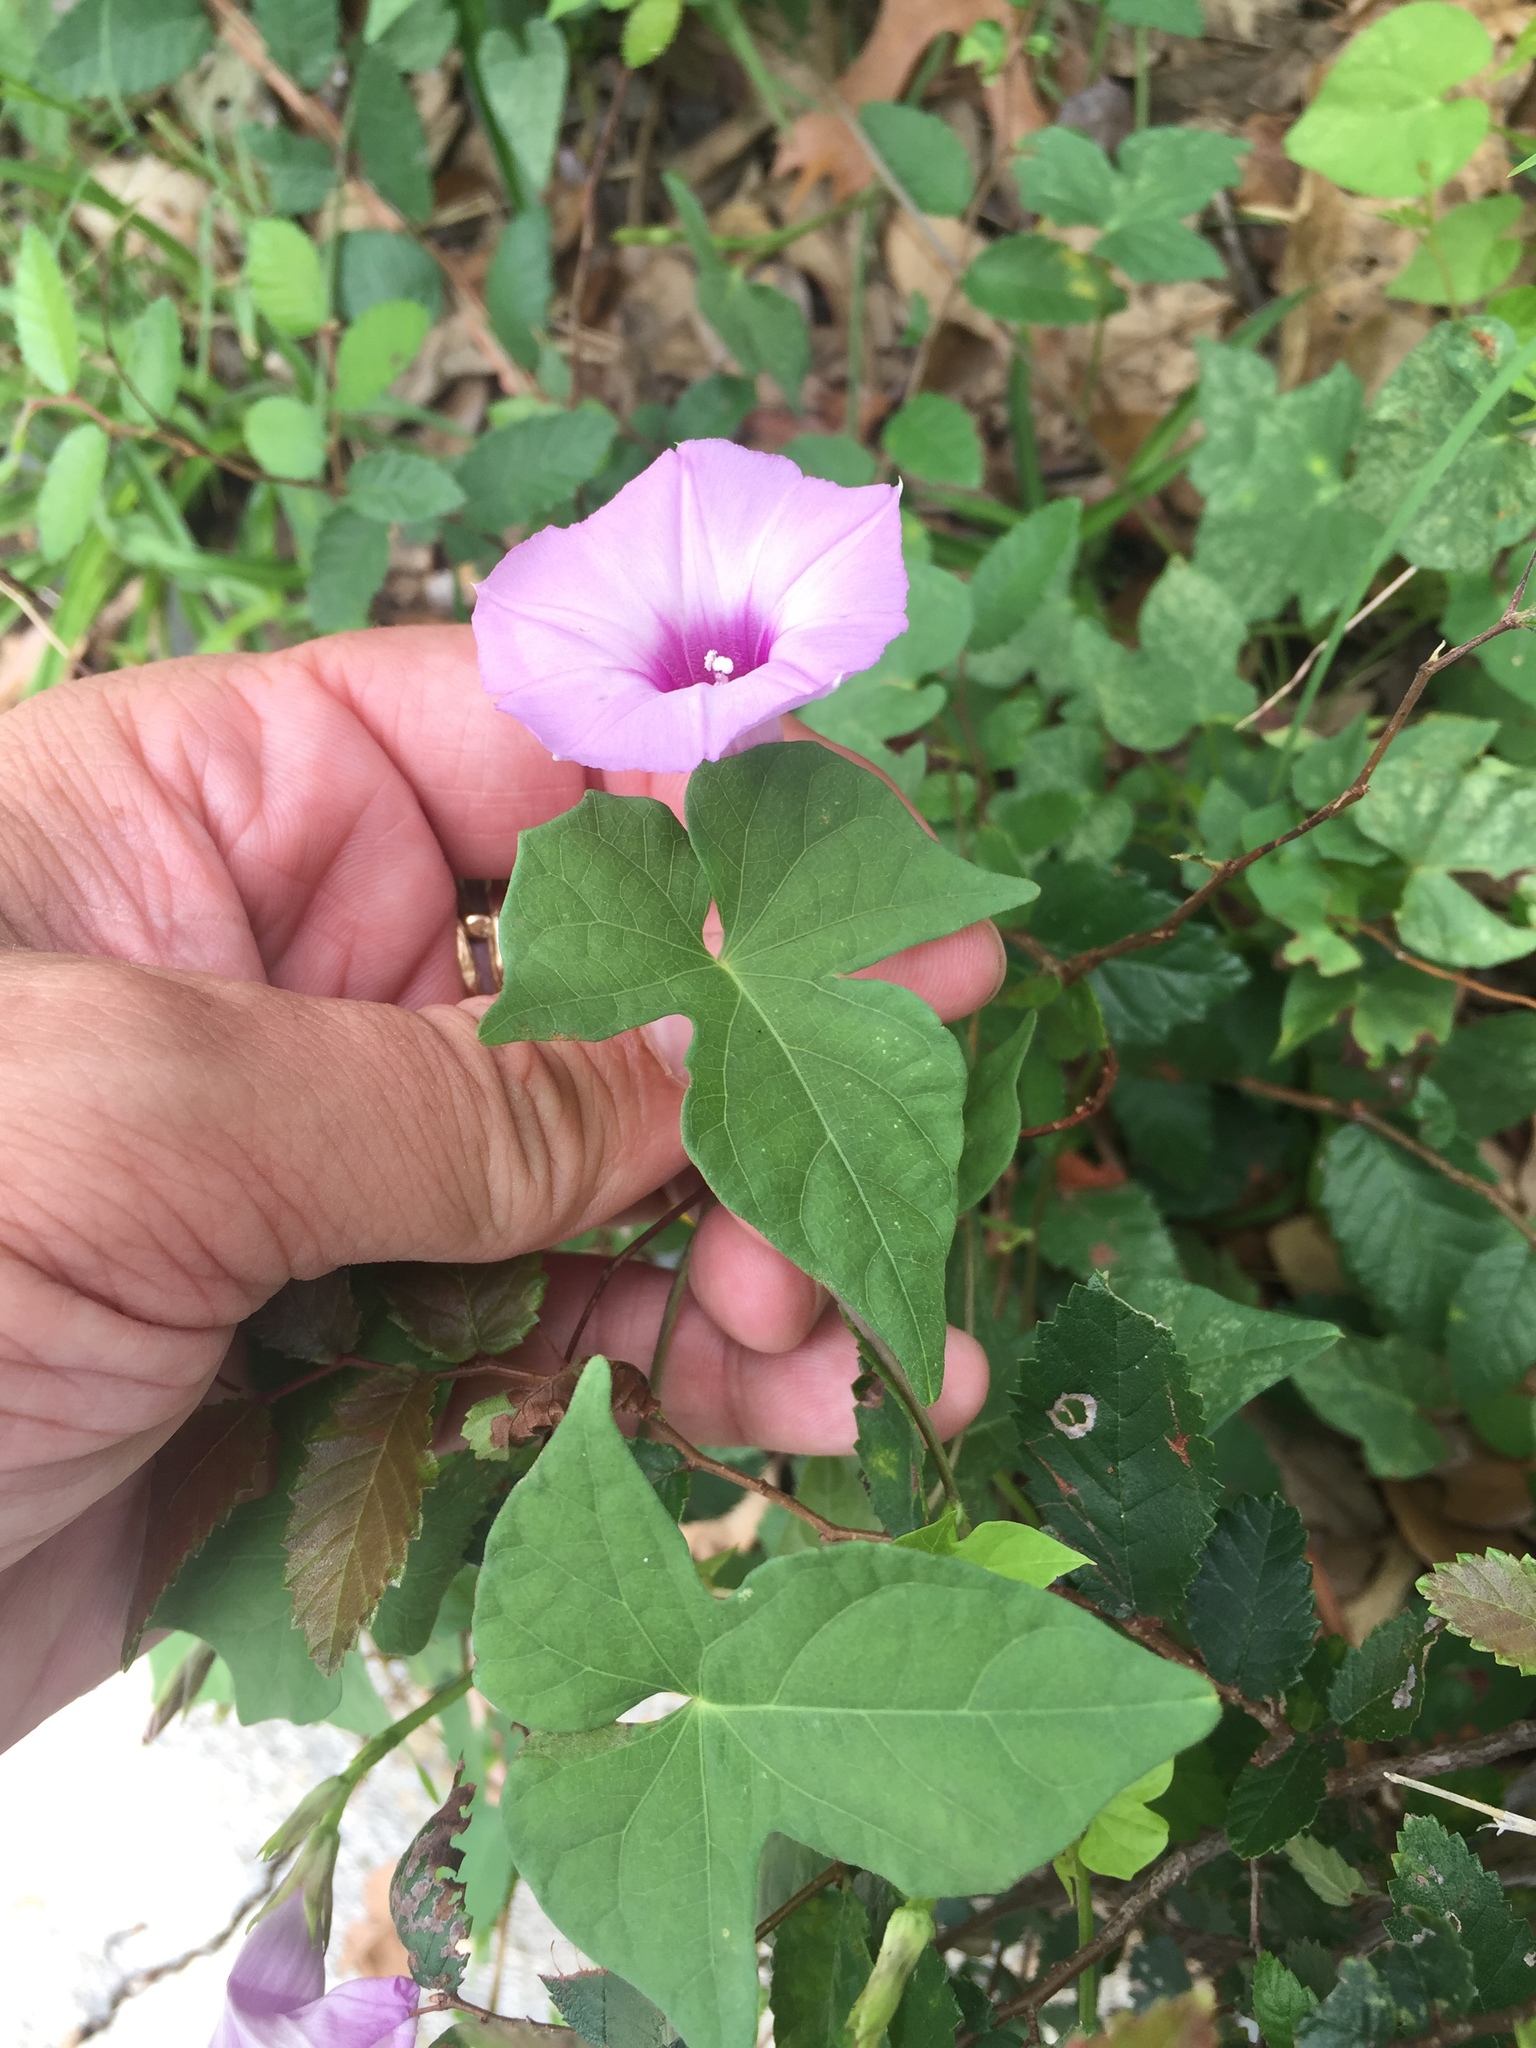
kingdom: Plantae
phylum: Tracheophyta
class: Magnoliopsida
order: Solanales
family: Convolvulaceae
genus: Ipomoea
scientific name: Ipomoea cordatotriloba
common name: Cotton morning glory
